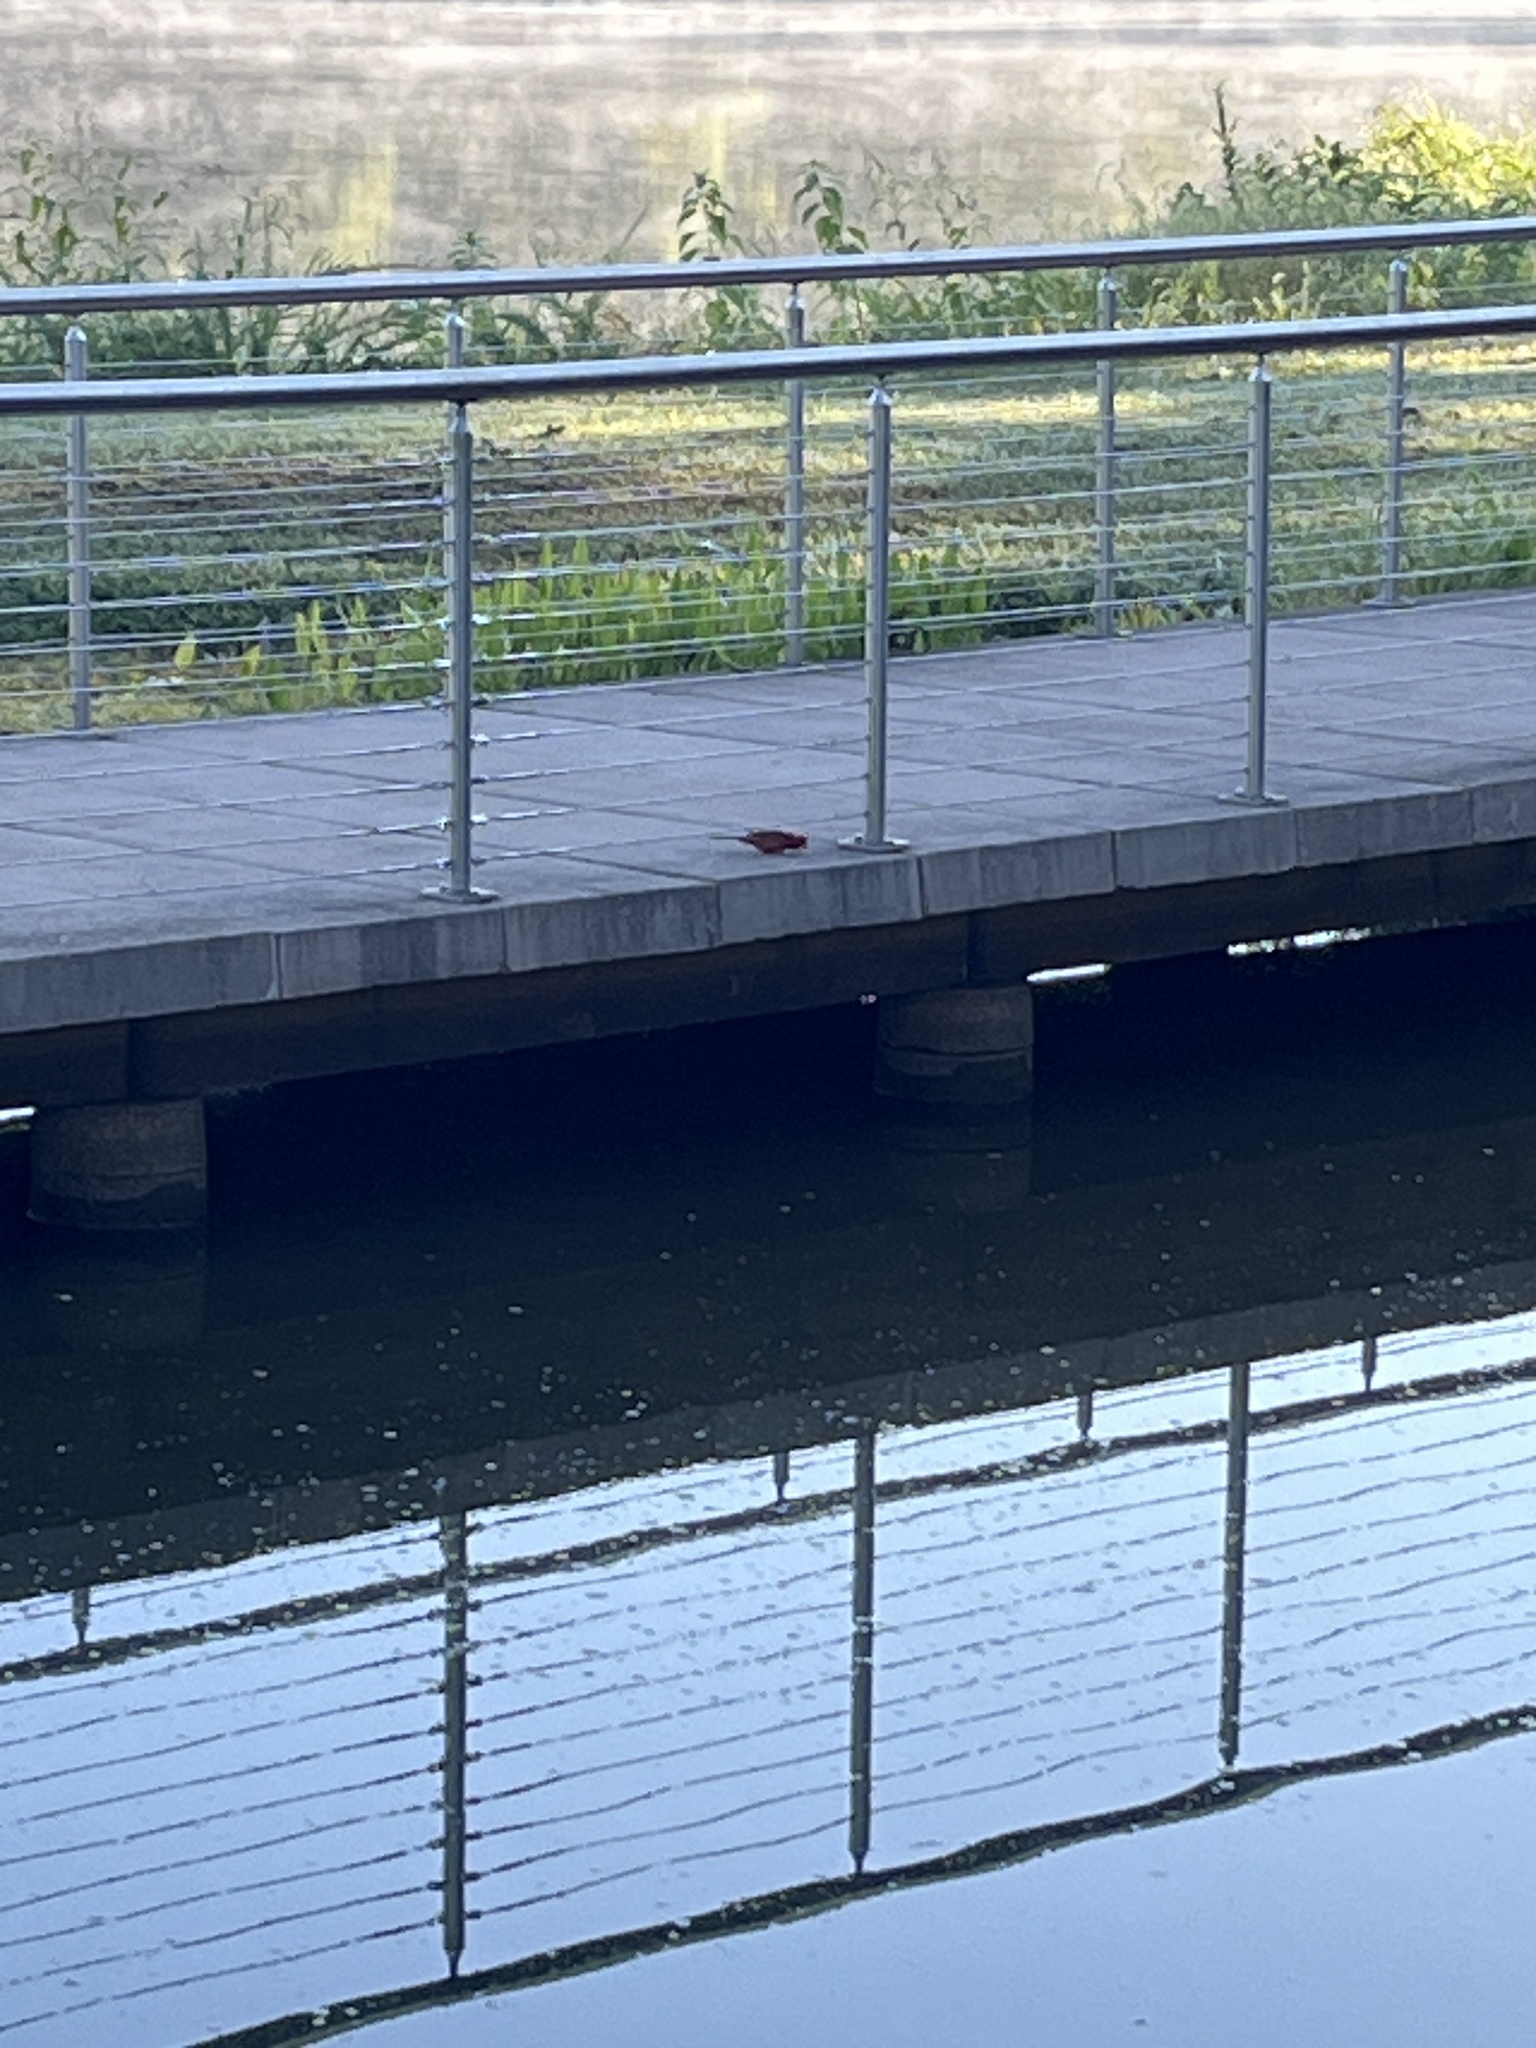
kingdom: Animalia
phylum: Chordata
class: Aves
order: Passeriformes
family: Cardinalidae
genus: Cardinalis
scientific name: Cardinalis cardinalis
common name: Northern cardinal
